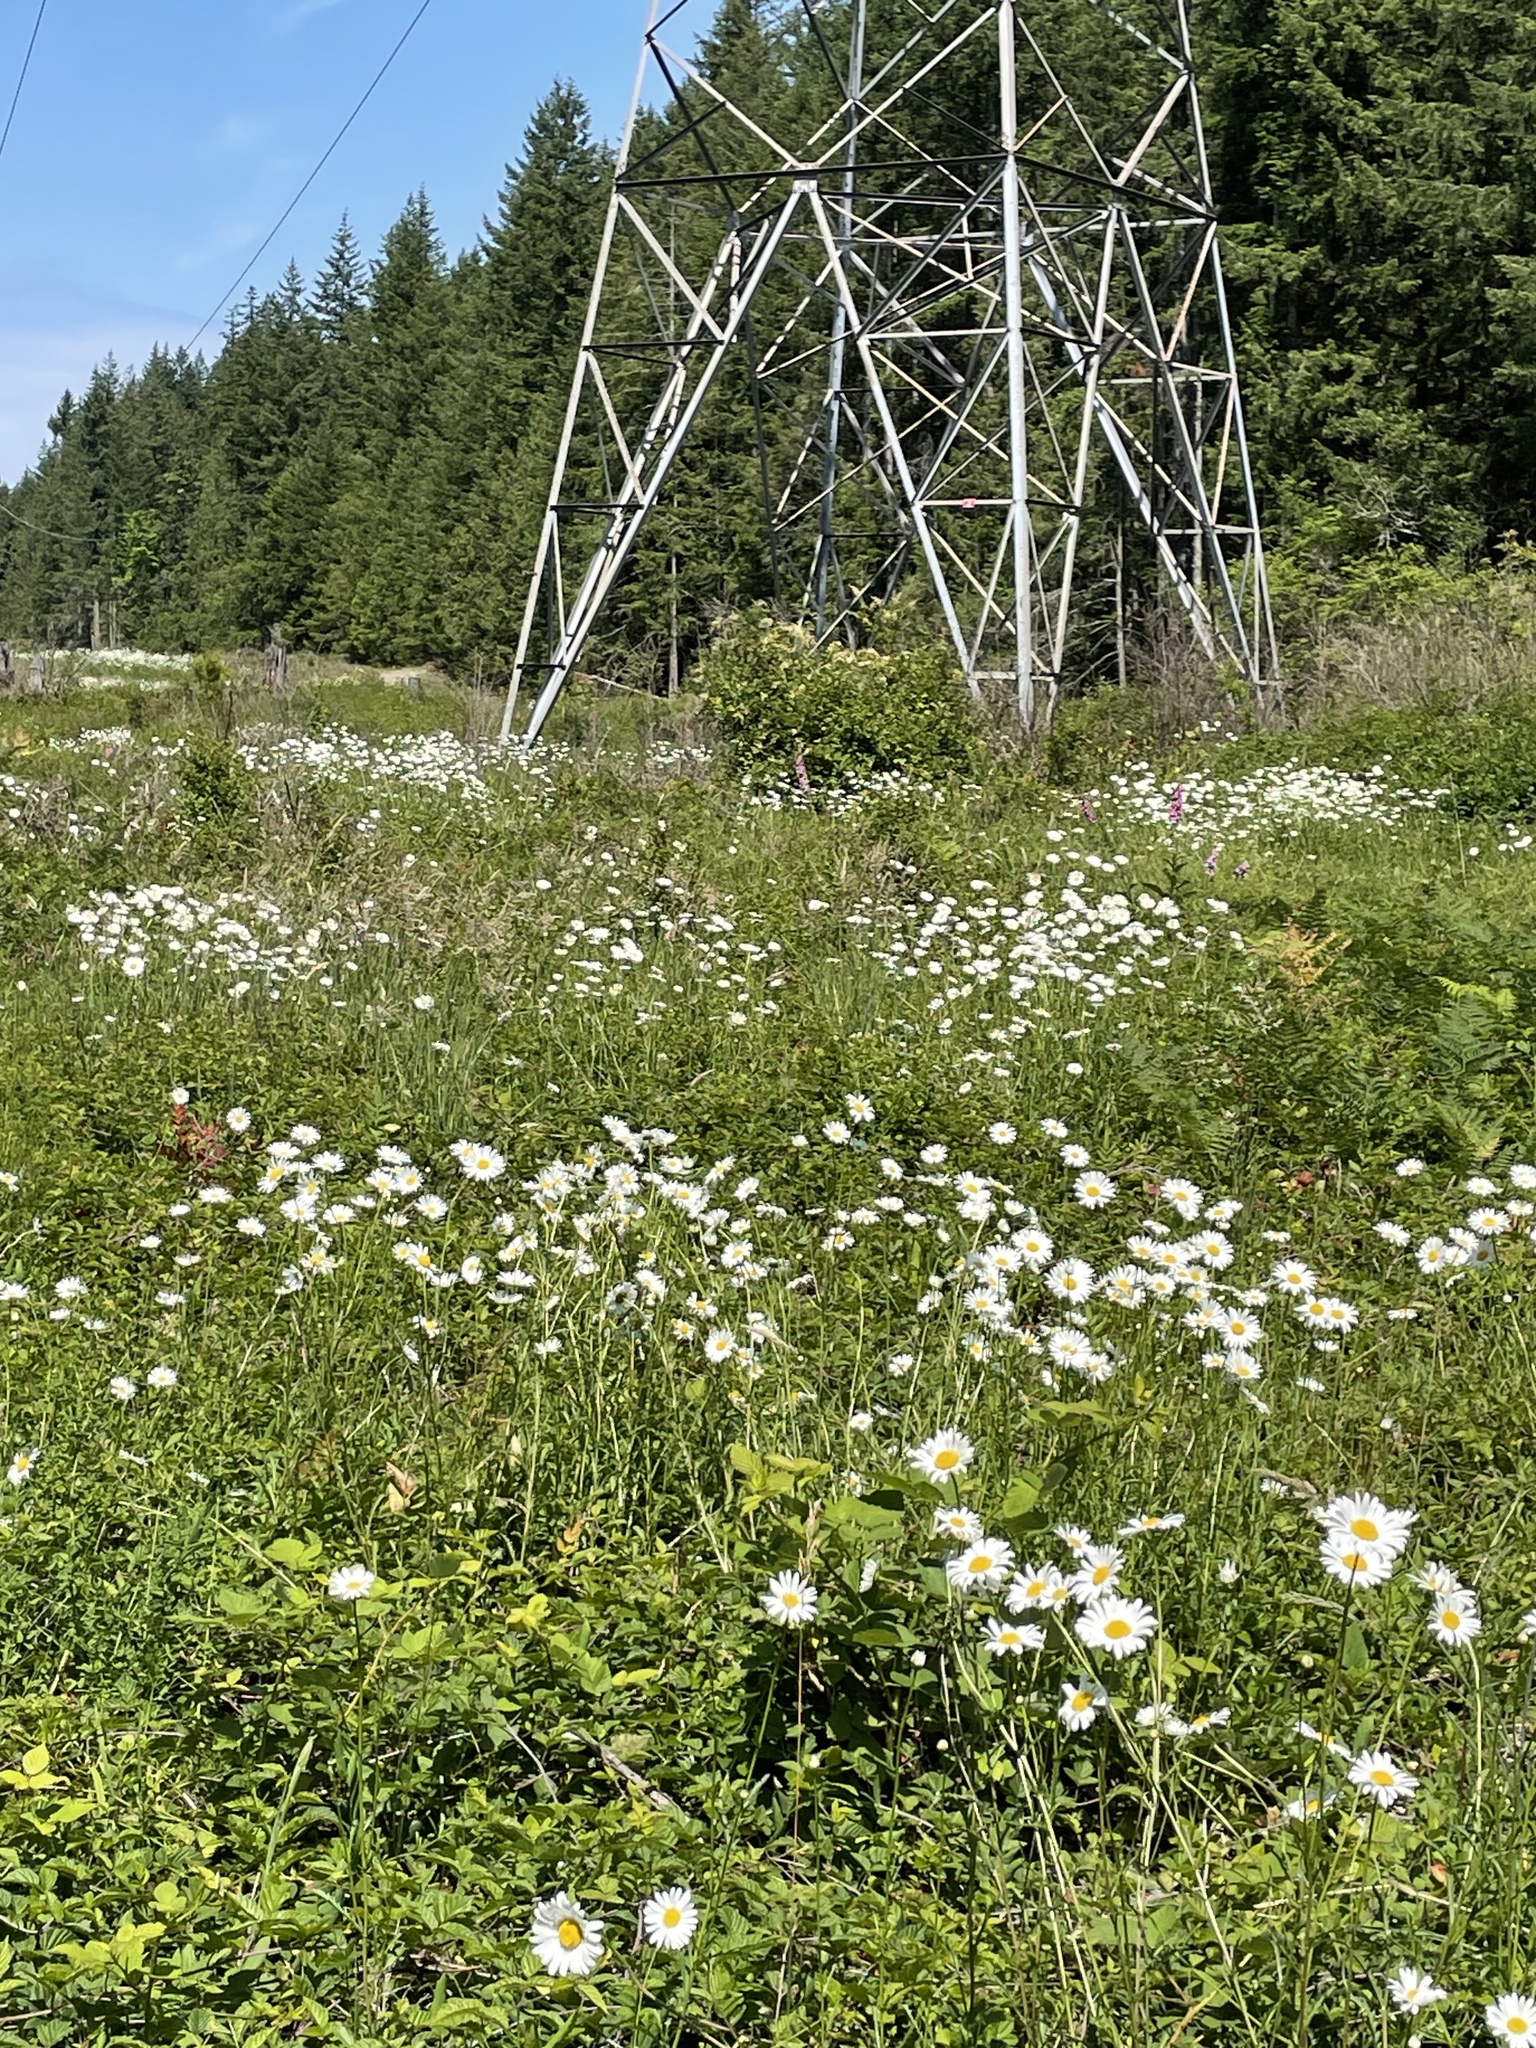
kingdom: Plantae
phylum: Tracheophyta
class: Magnoliopsida
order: Asterales
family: Asteraceae
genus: Leucanthemum
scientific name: Leucanthemum vulgare
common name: Oxeye daisy
